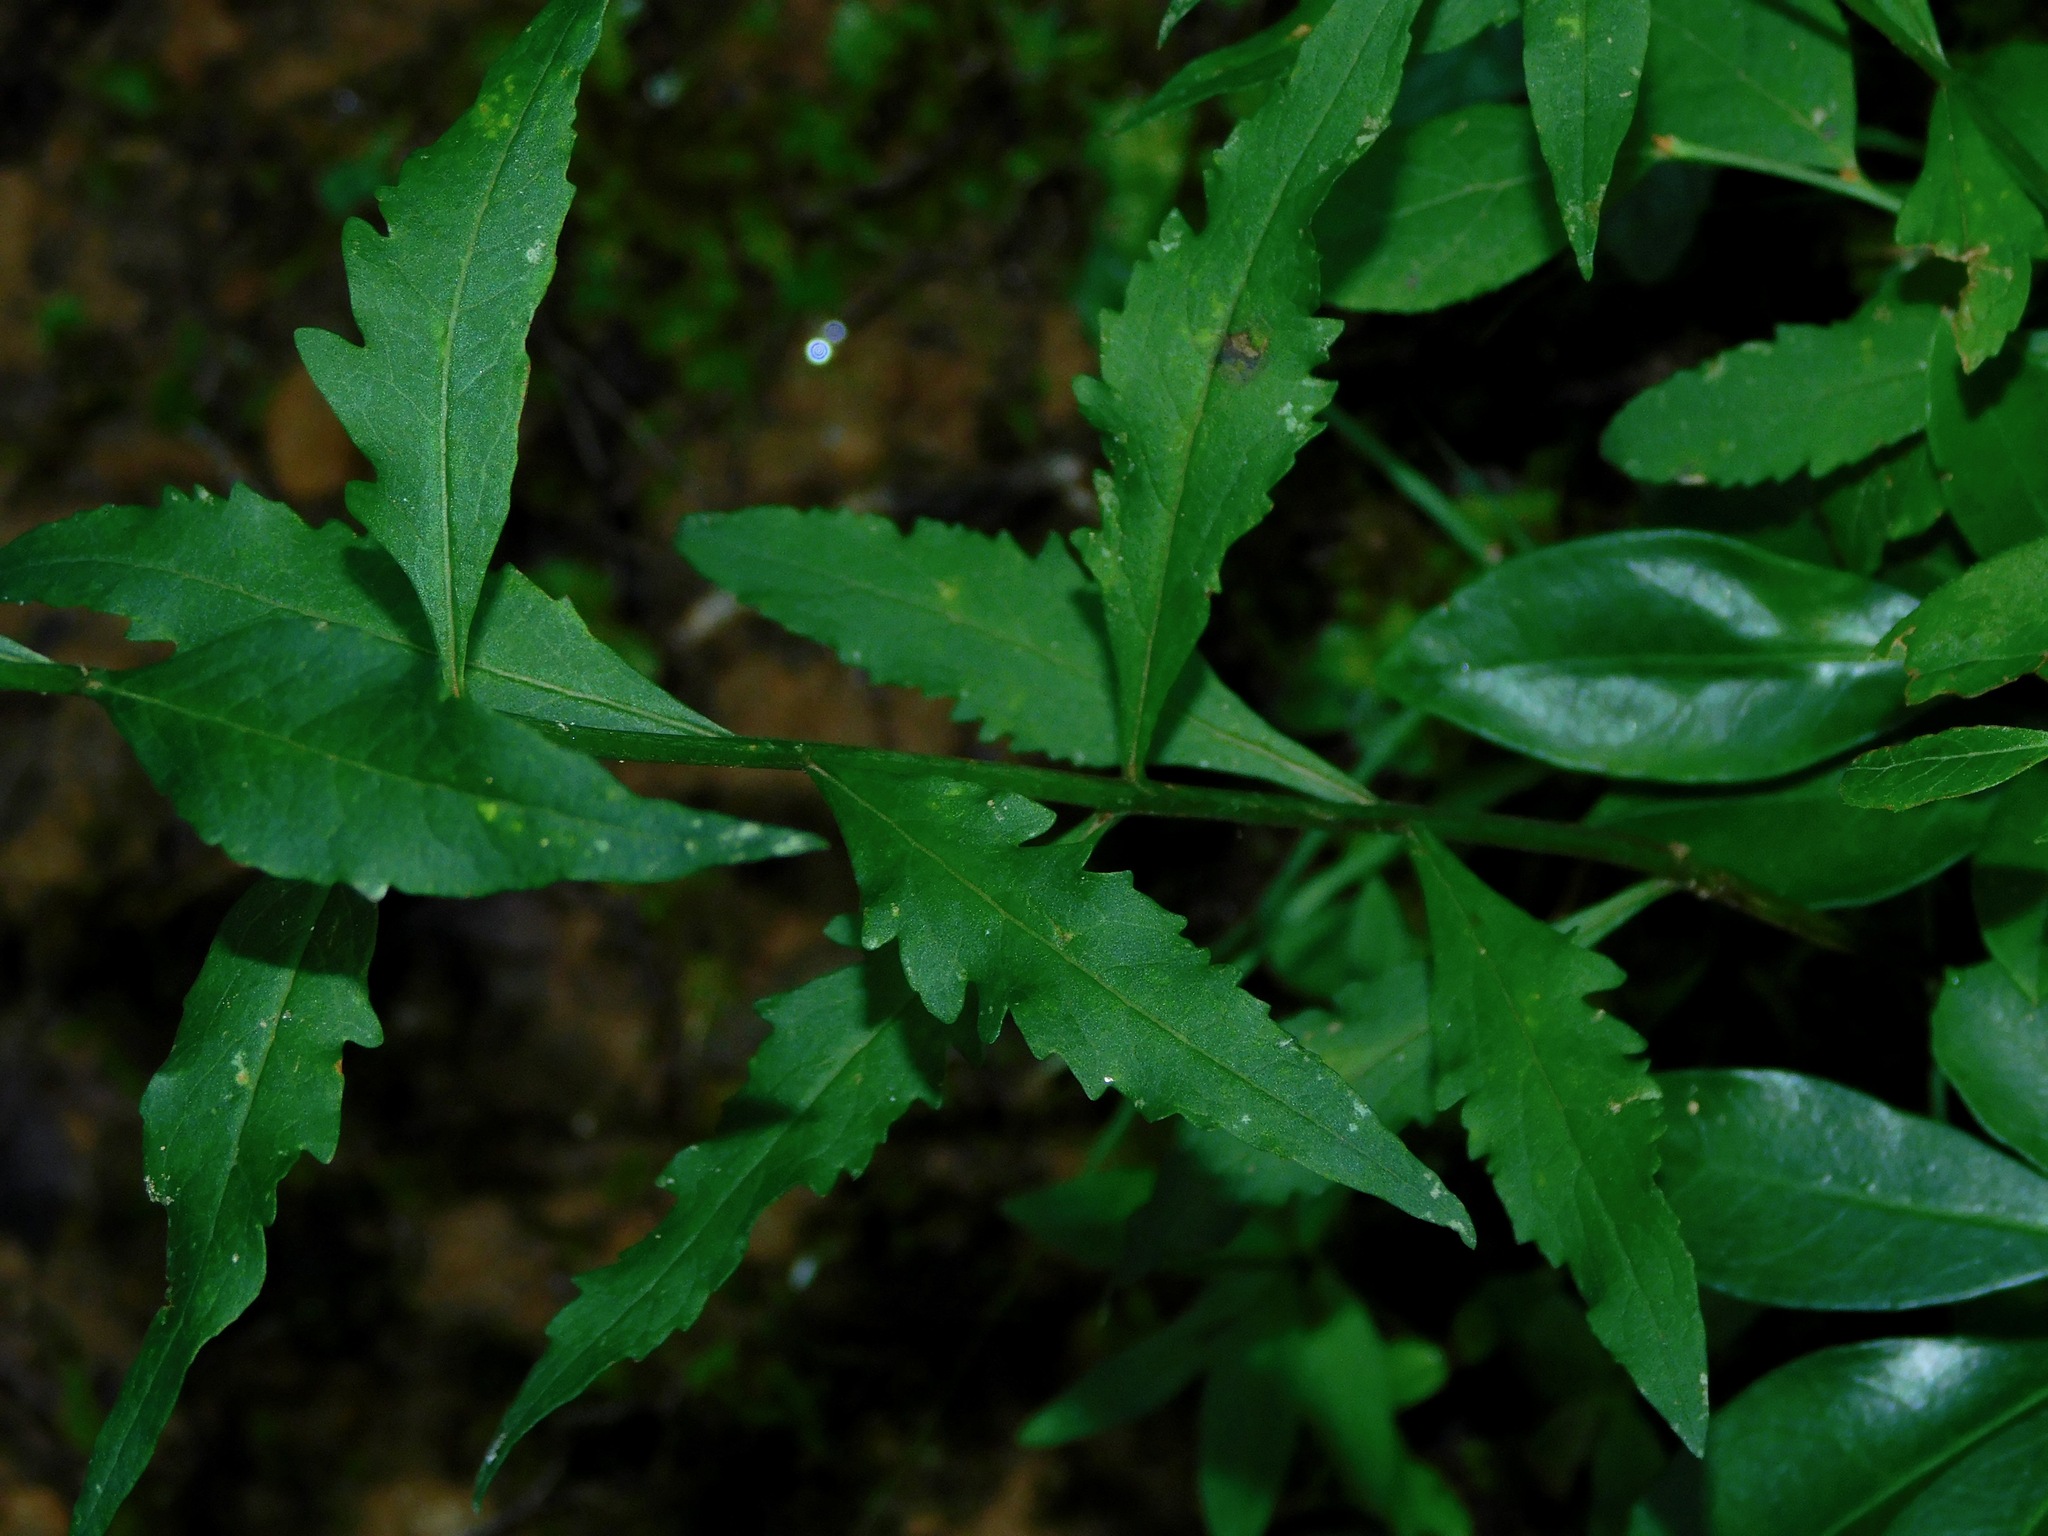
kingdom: Plantae
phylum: Tracheophyta
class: Magnoliopsida
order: Lamiales
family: Orobanchaceae
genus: Aureolaria
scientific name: Aureolaria virginica
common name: Downy false foxglove
